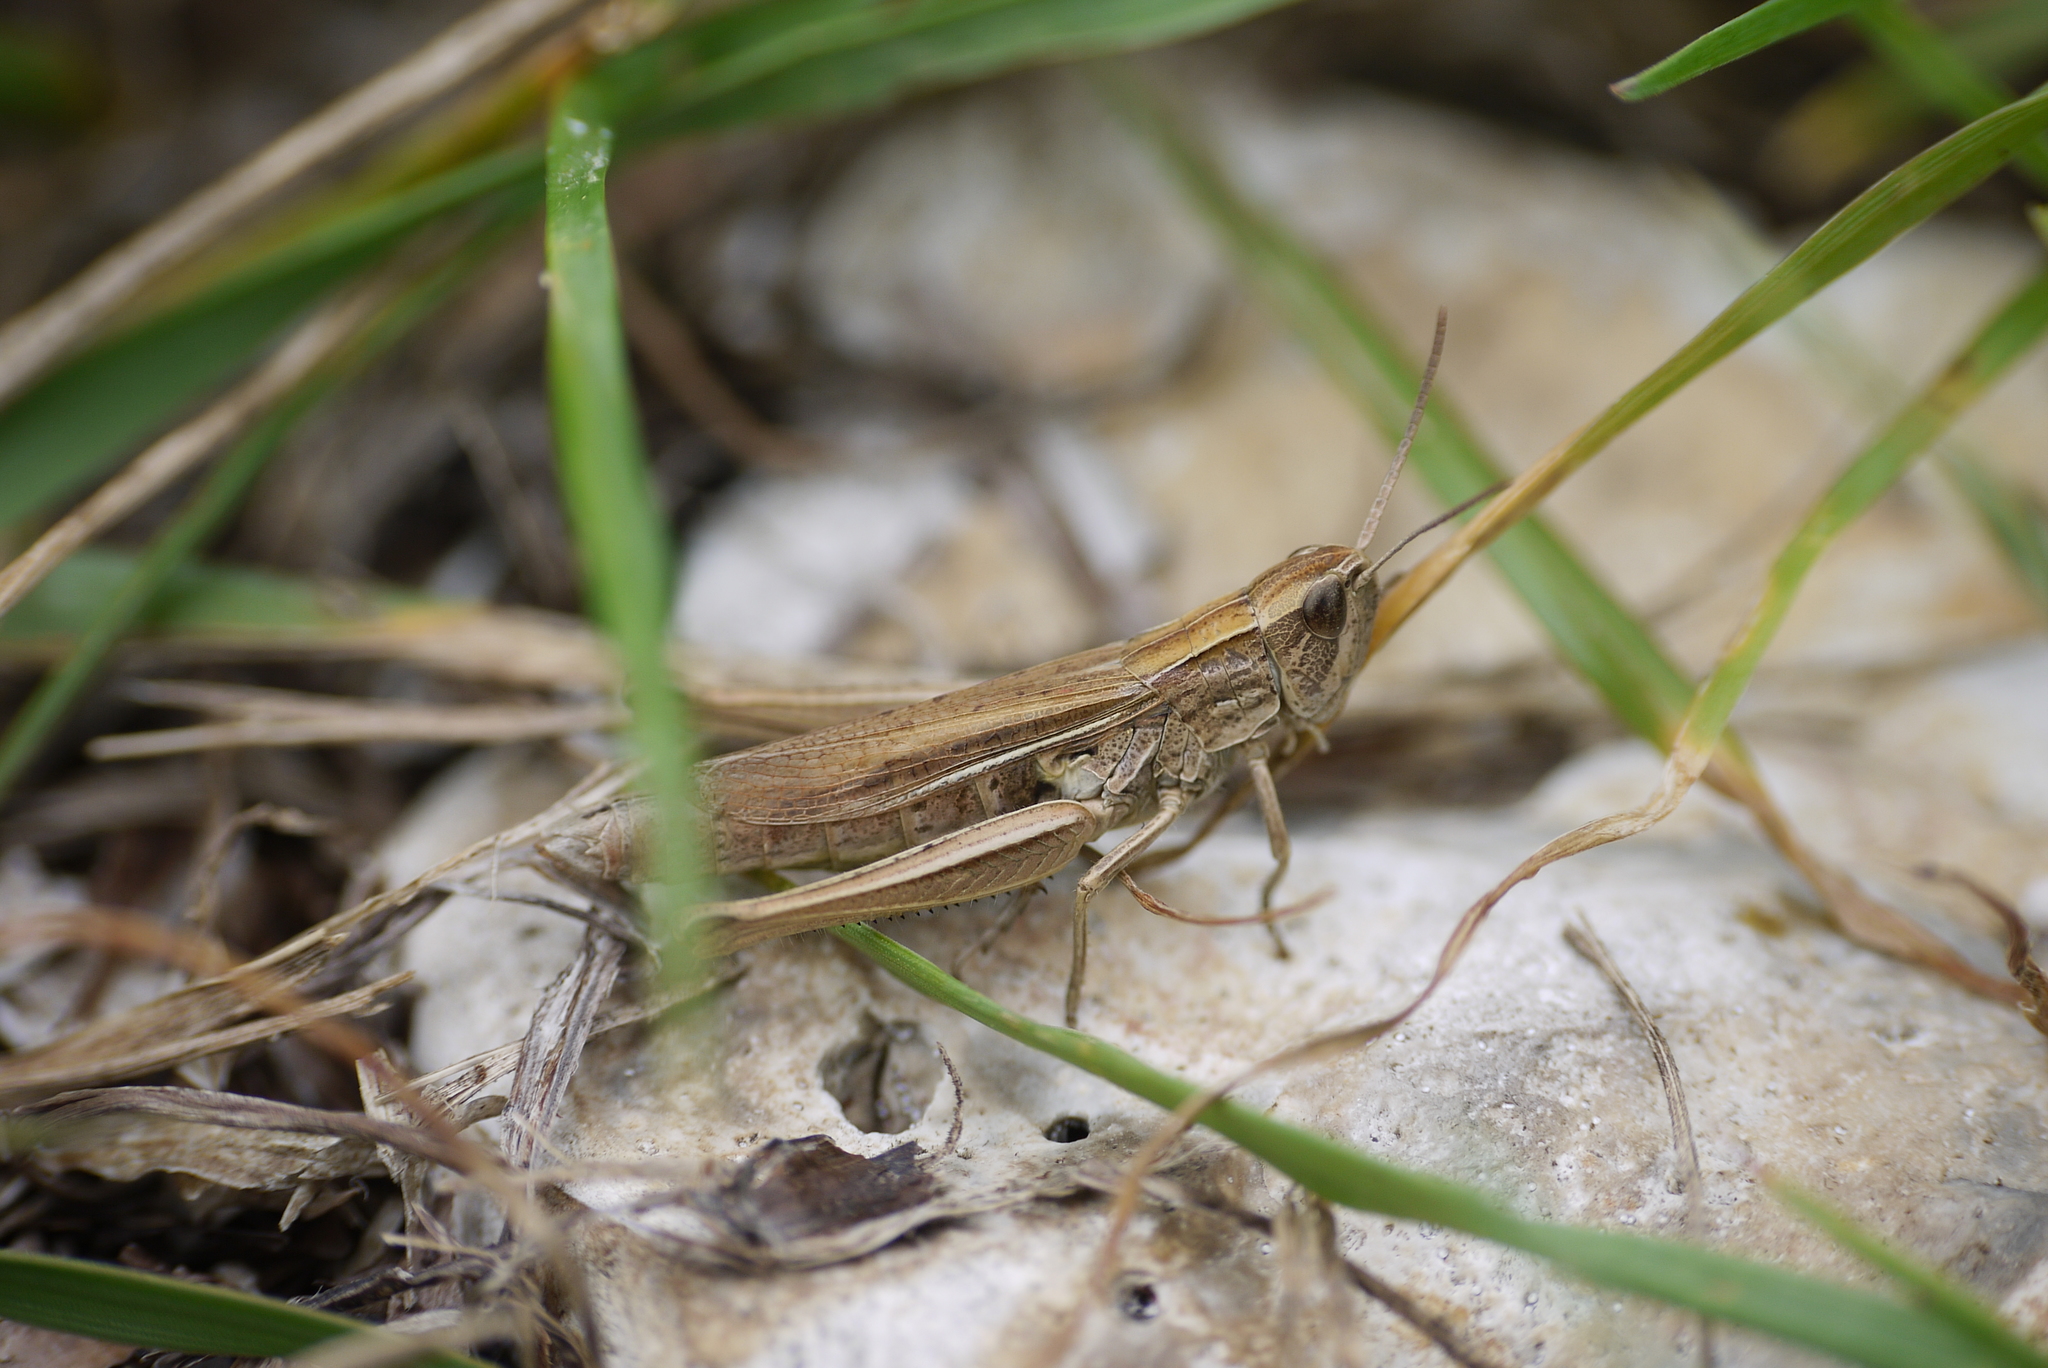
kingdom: Animalia
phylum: Arthropoda
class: Insecta
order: Orthoptera
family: Acrididae
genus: Chorthippus
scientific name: Chorthippus albomarginatus
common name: Lesser marsh grasshopper
